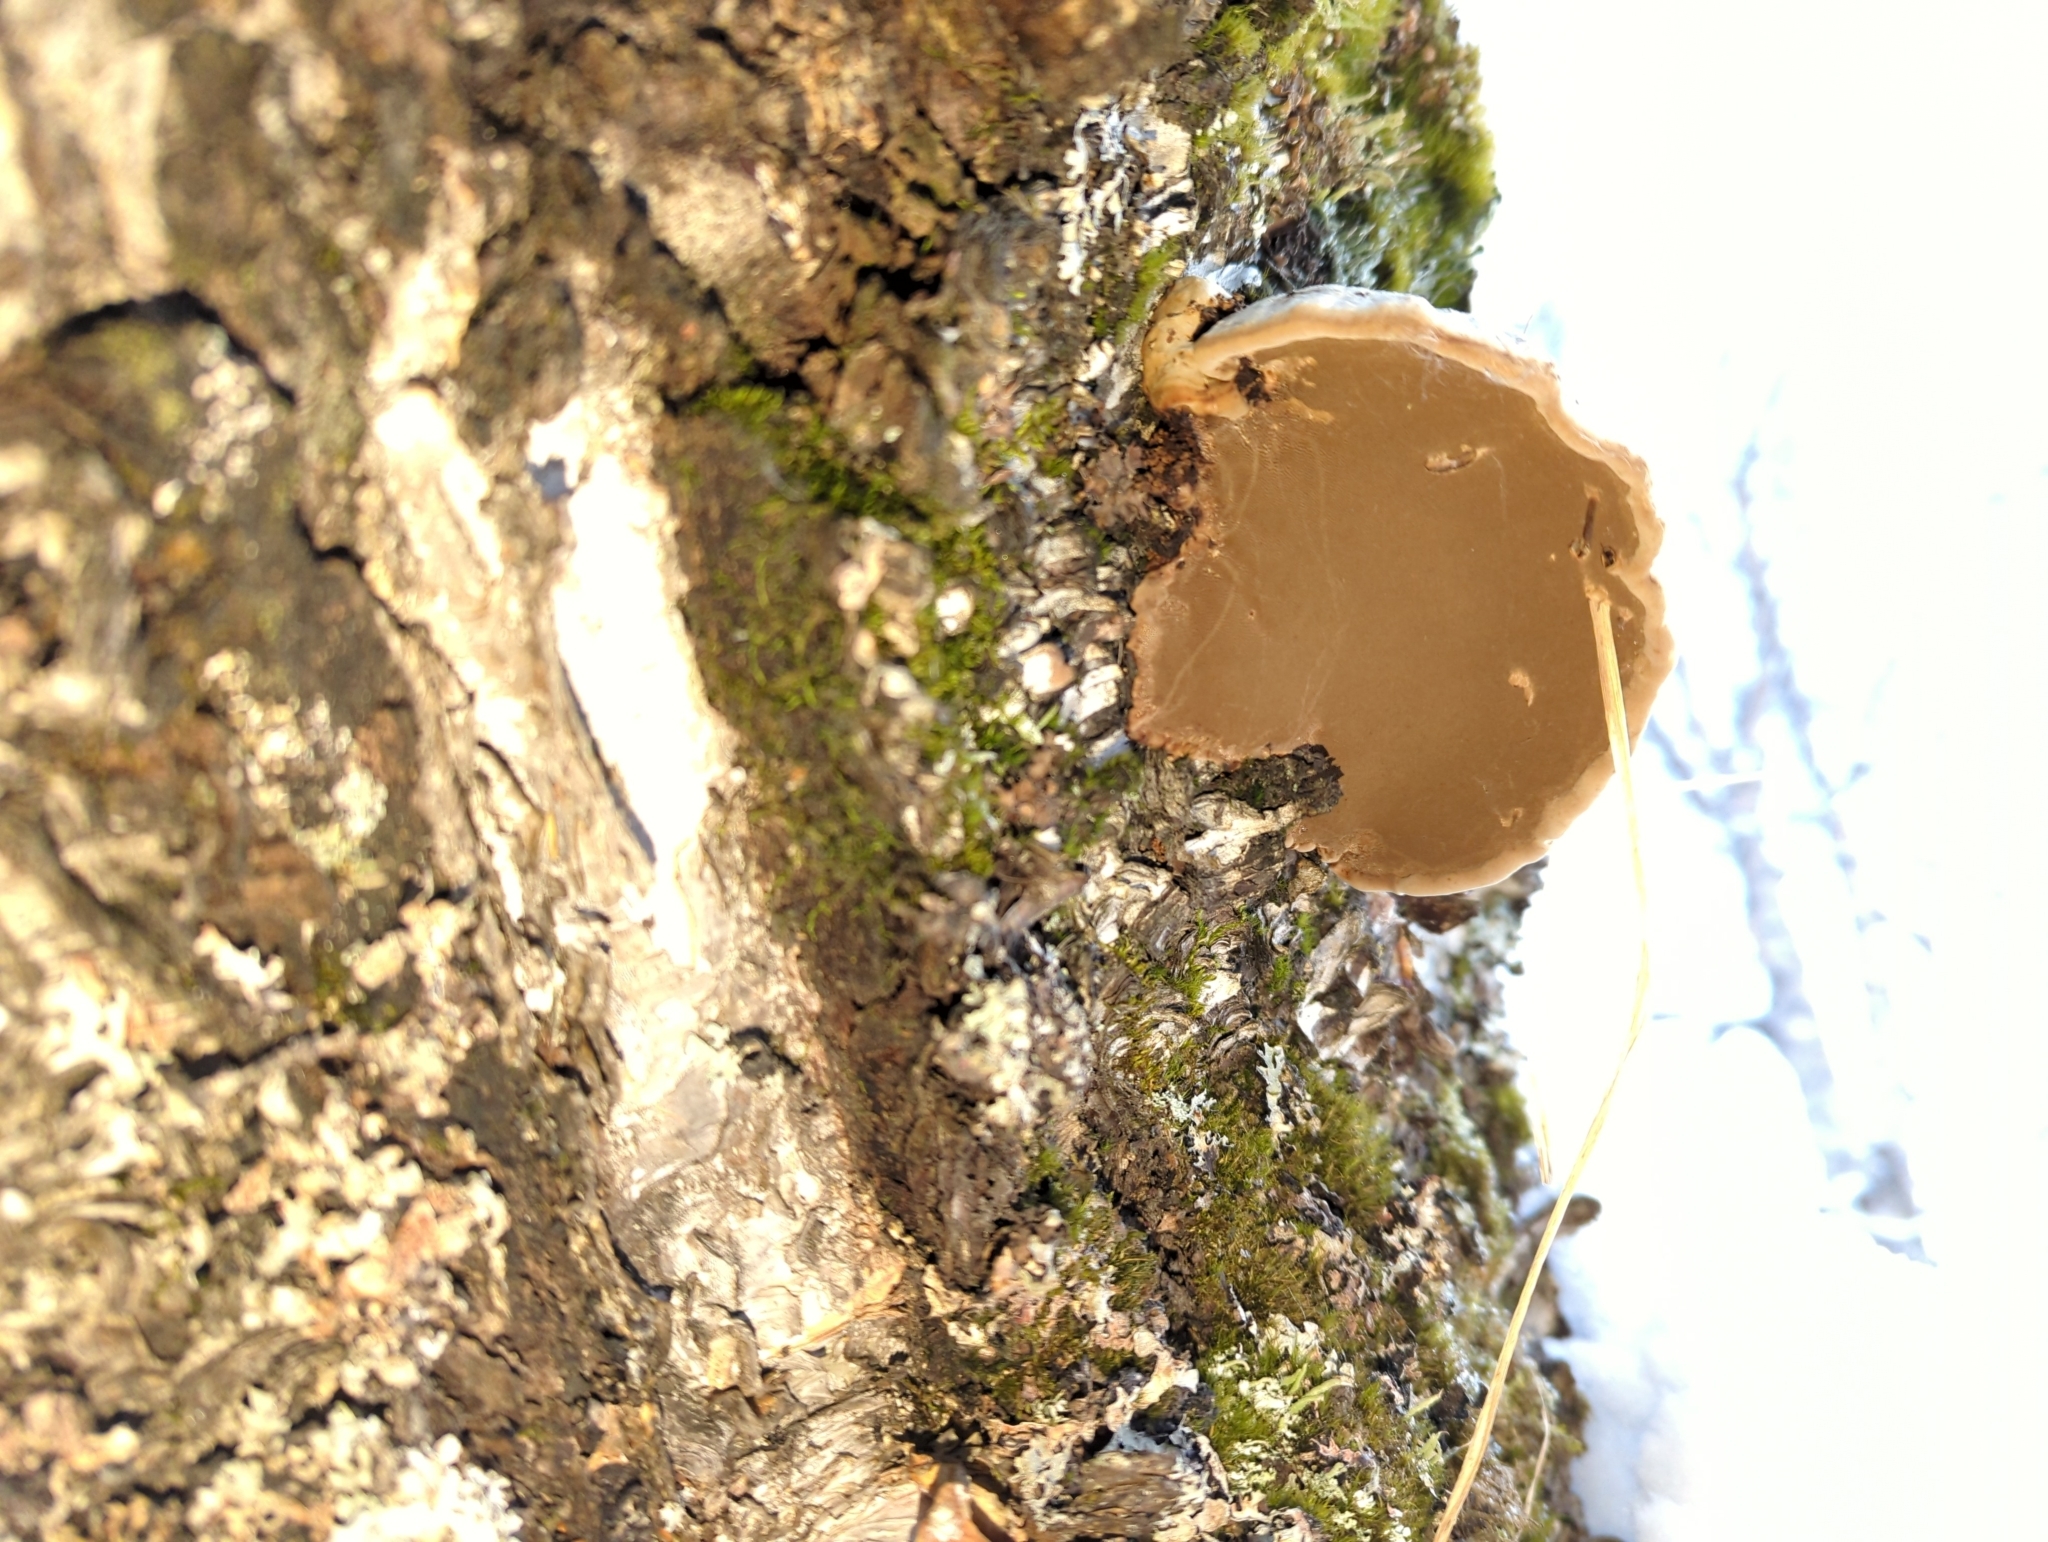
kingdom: Fungi
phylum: Basidiomycota
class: Agaricomycetes
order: Polyporales
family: Polyporaceae
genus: Fomes
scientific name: Fomes fomentarius
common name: Hoof fungus
